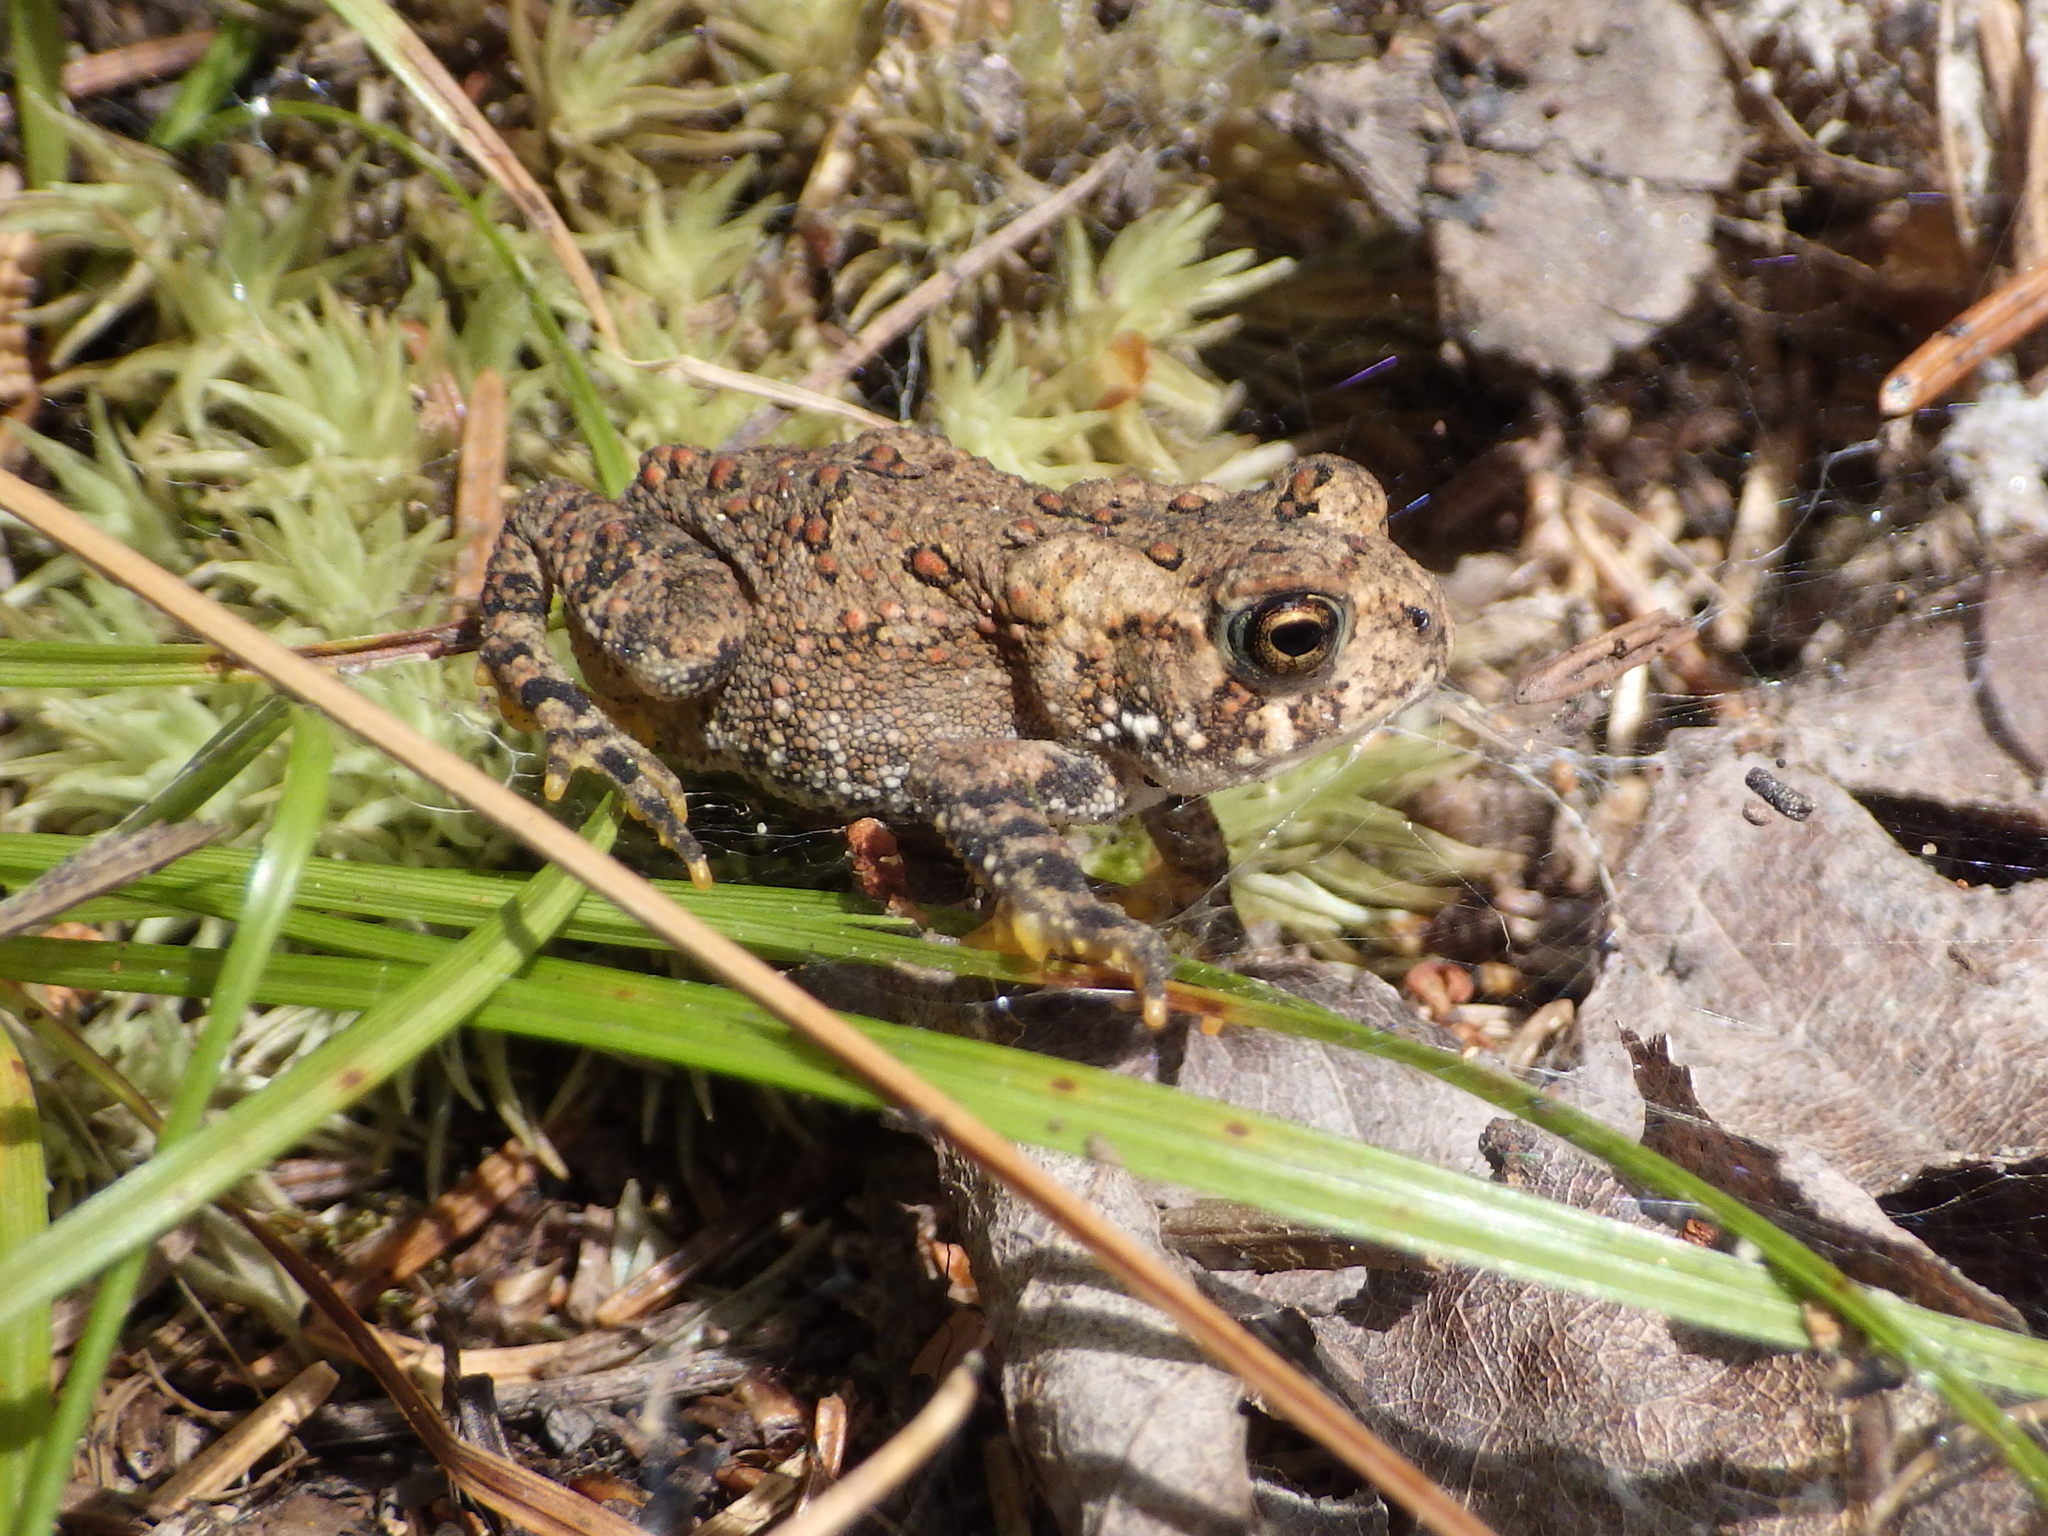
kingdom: Animalia
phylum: Chordata
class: Amphibia
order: Anura
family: Bufonidae
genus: Anaxyrus
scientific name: Anaxyrus americanus
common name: American toad
